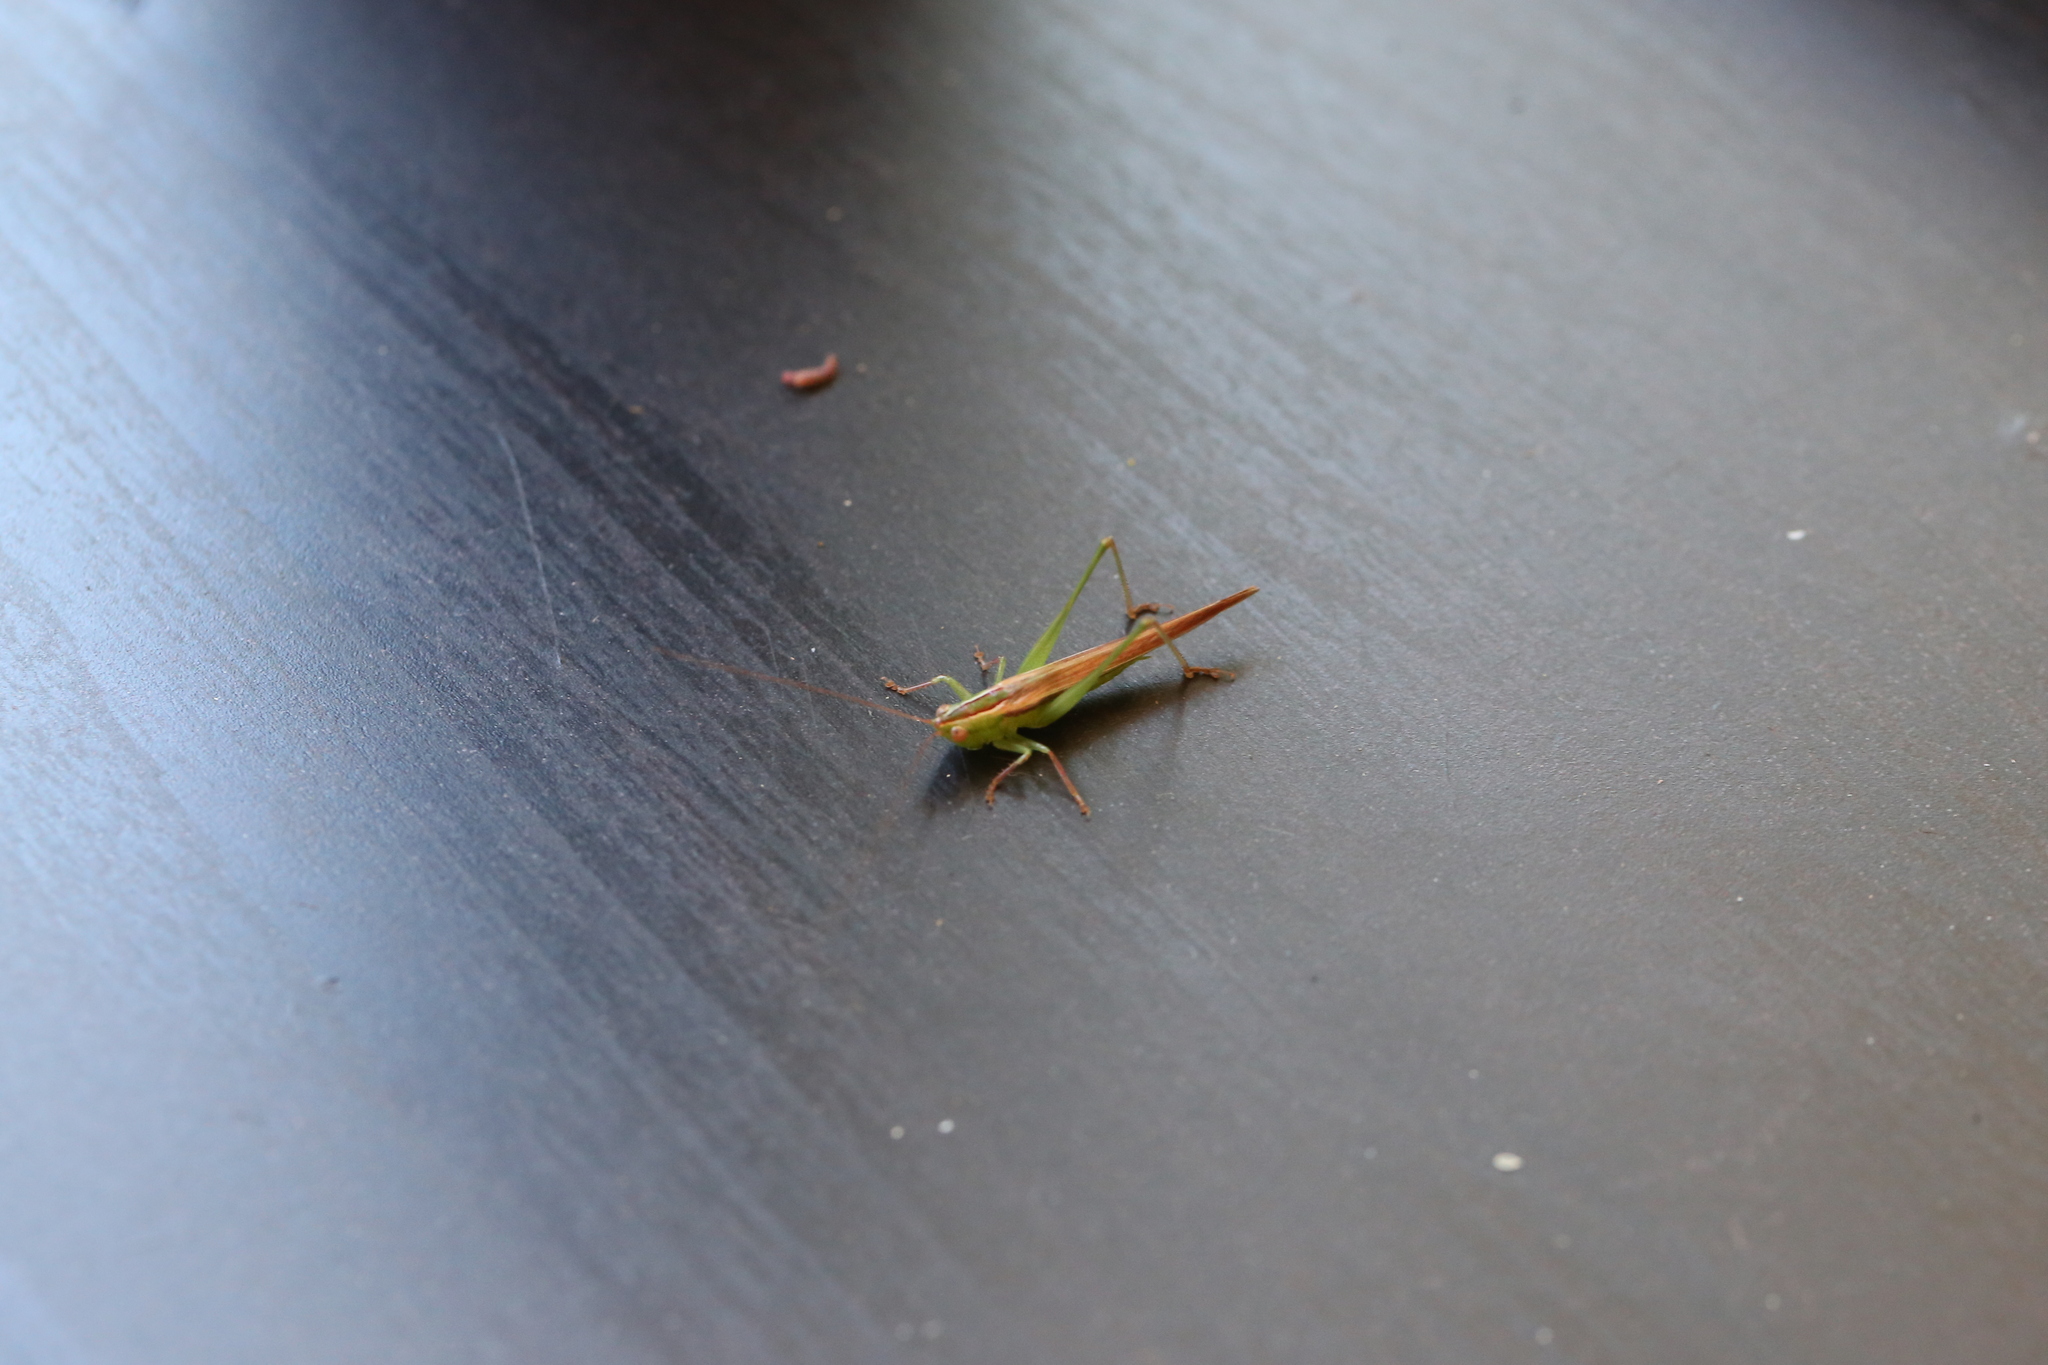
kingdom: Animalia
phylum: Arthropoda
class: Insecta
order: Orthoptera
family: Tettigoniidae
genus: Conocephalus
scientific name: Conocephalus upoluensis
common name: Upolu meadow katydid
